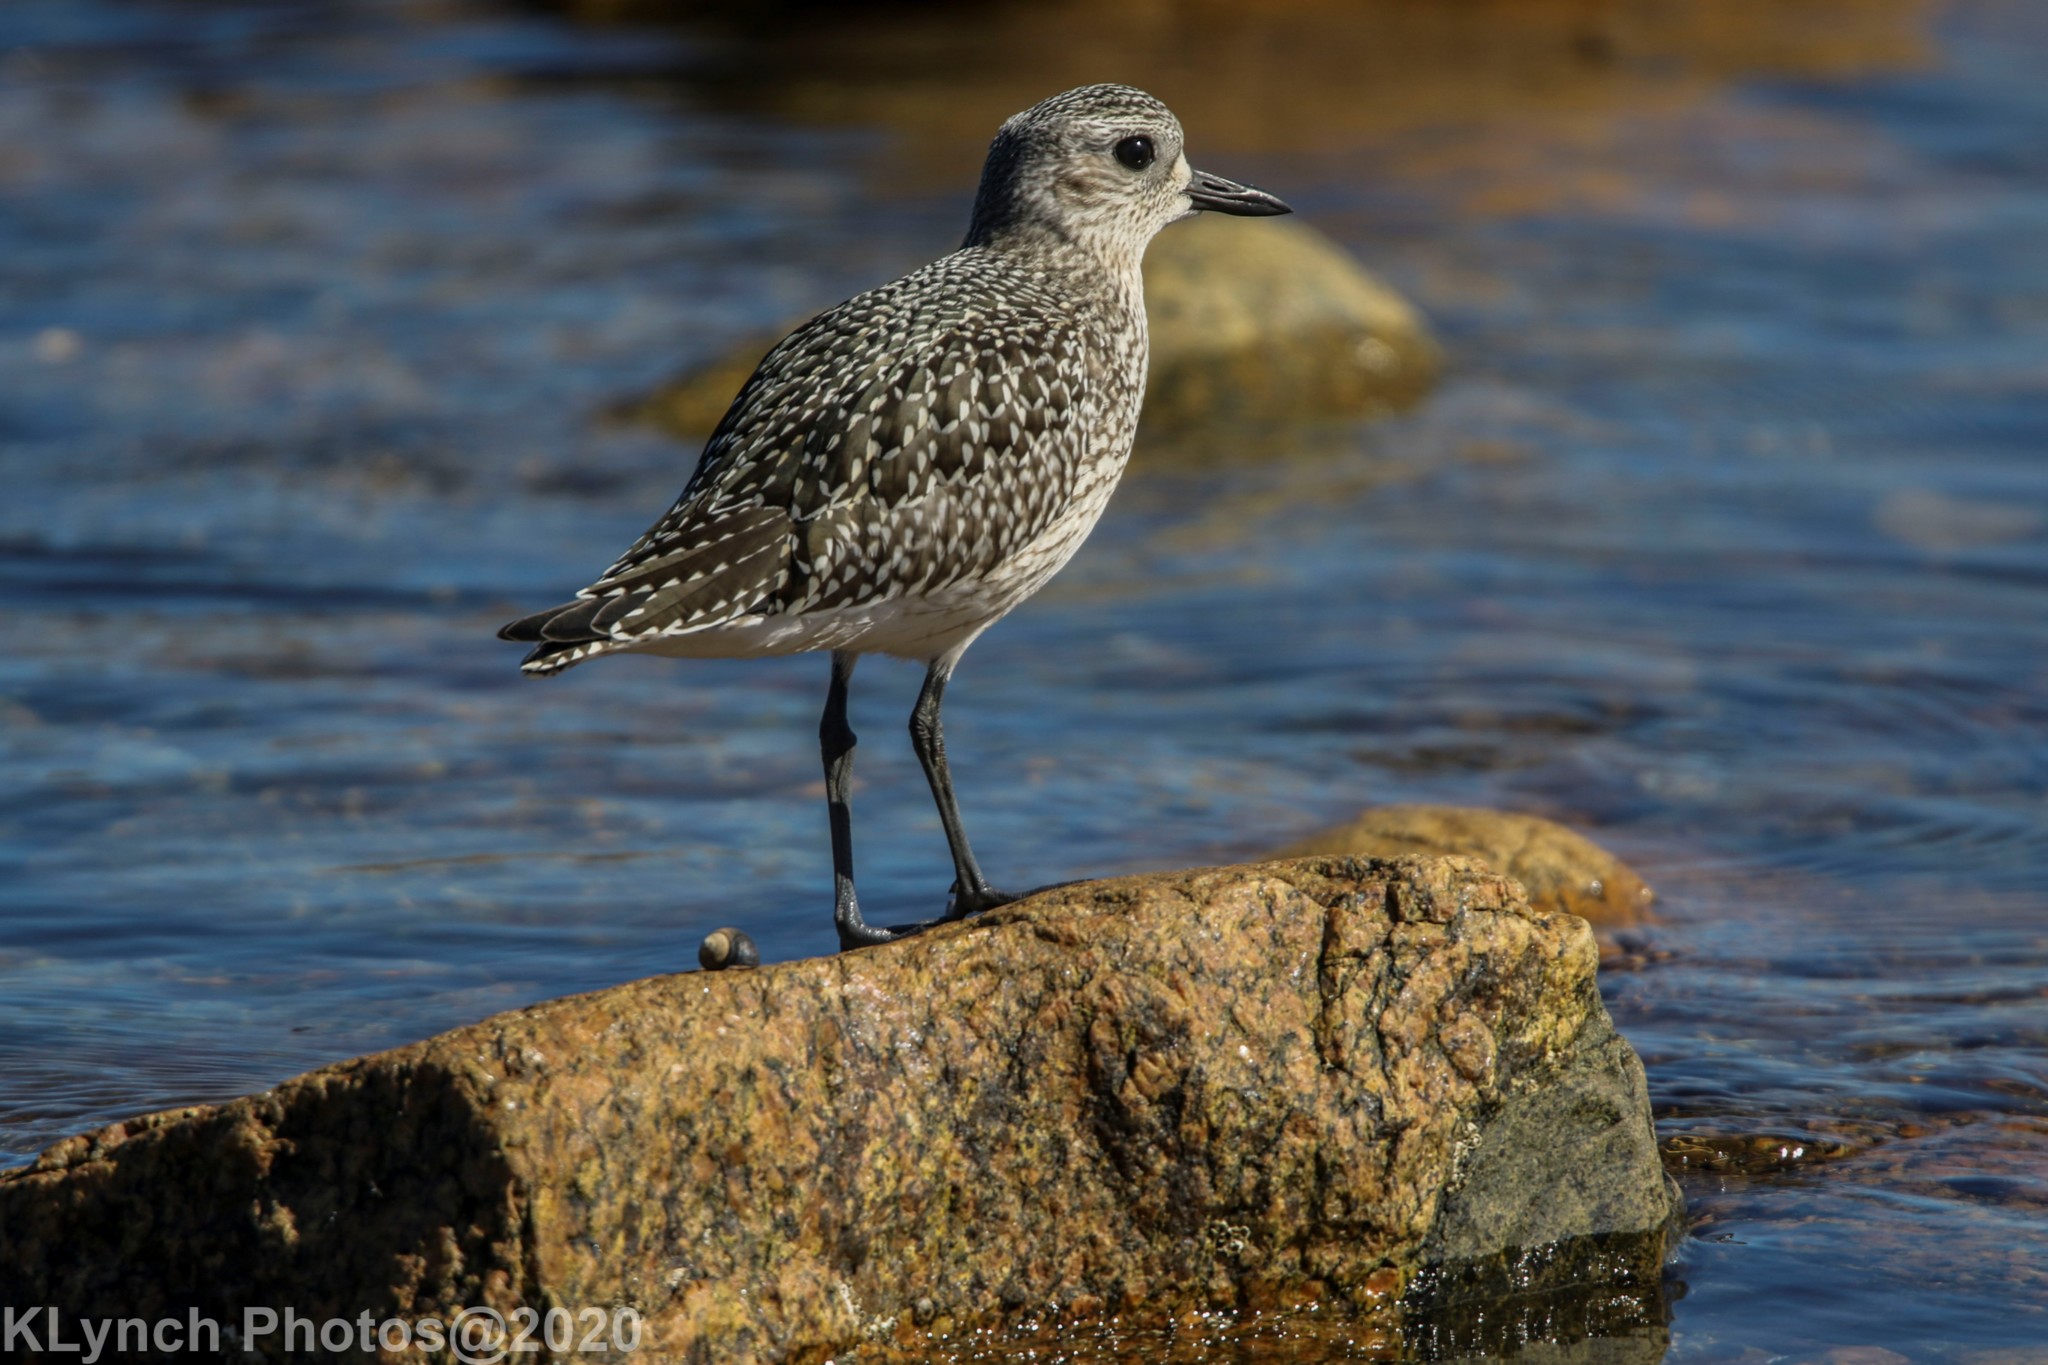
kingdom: Animalia
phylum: Chordata
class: Aves
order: Charadriiformes
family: Charadriidae
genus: Pluvialis
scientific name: Pluvialis squatarola
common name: Grey plover
